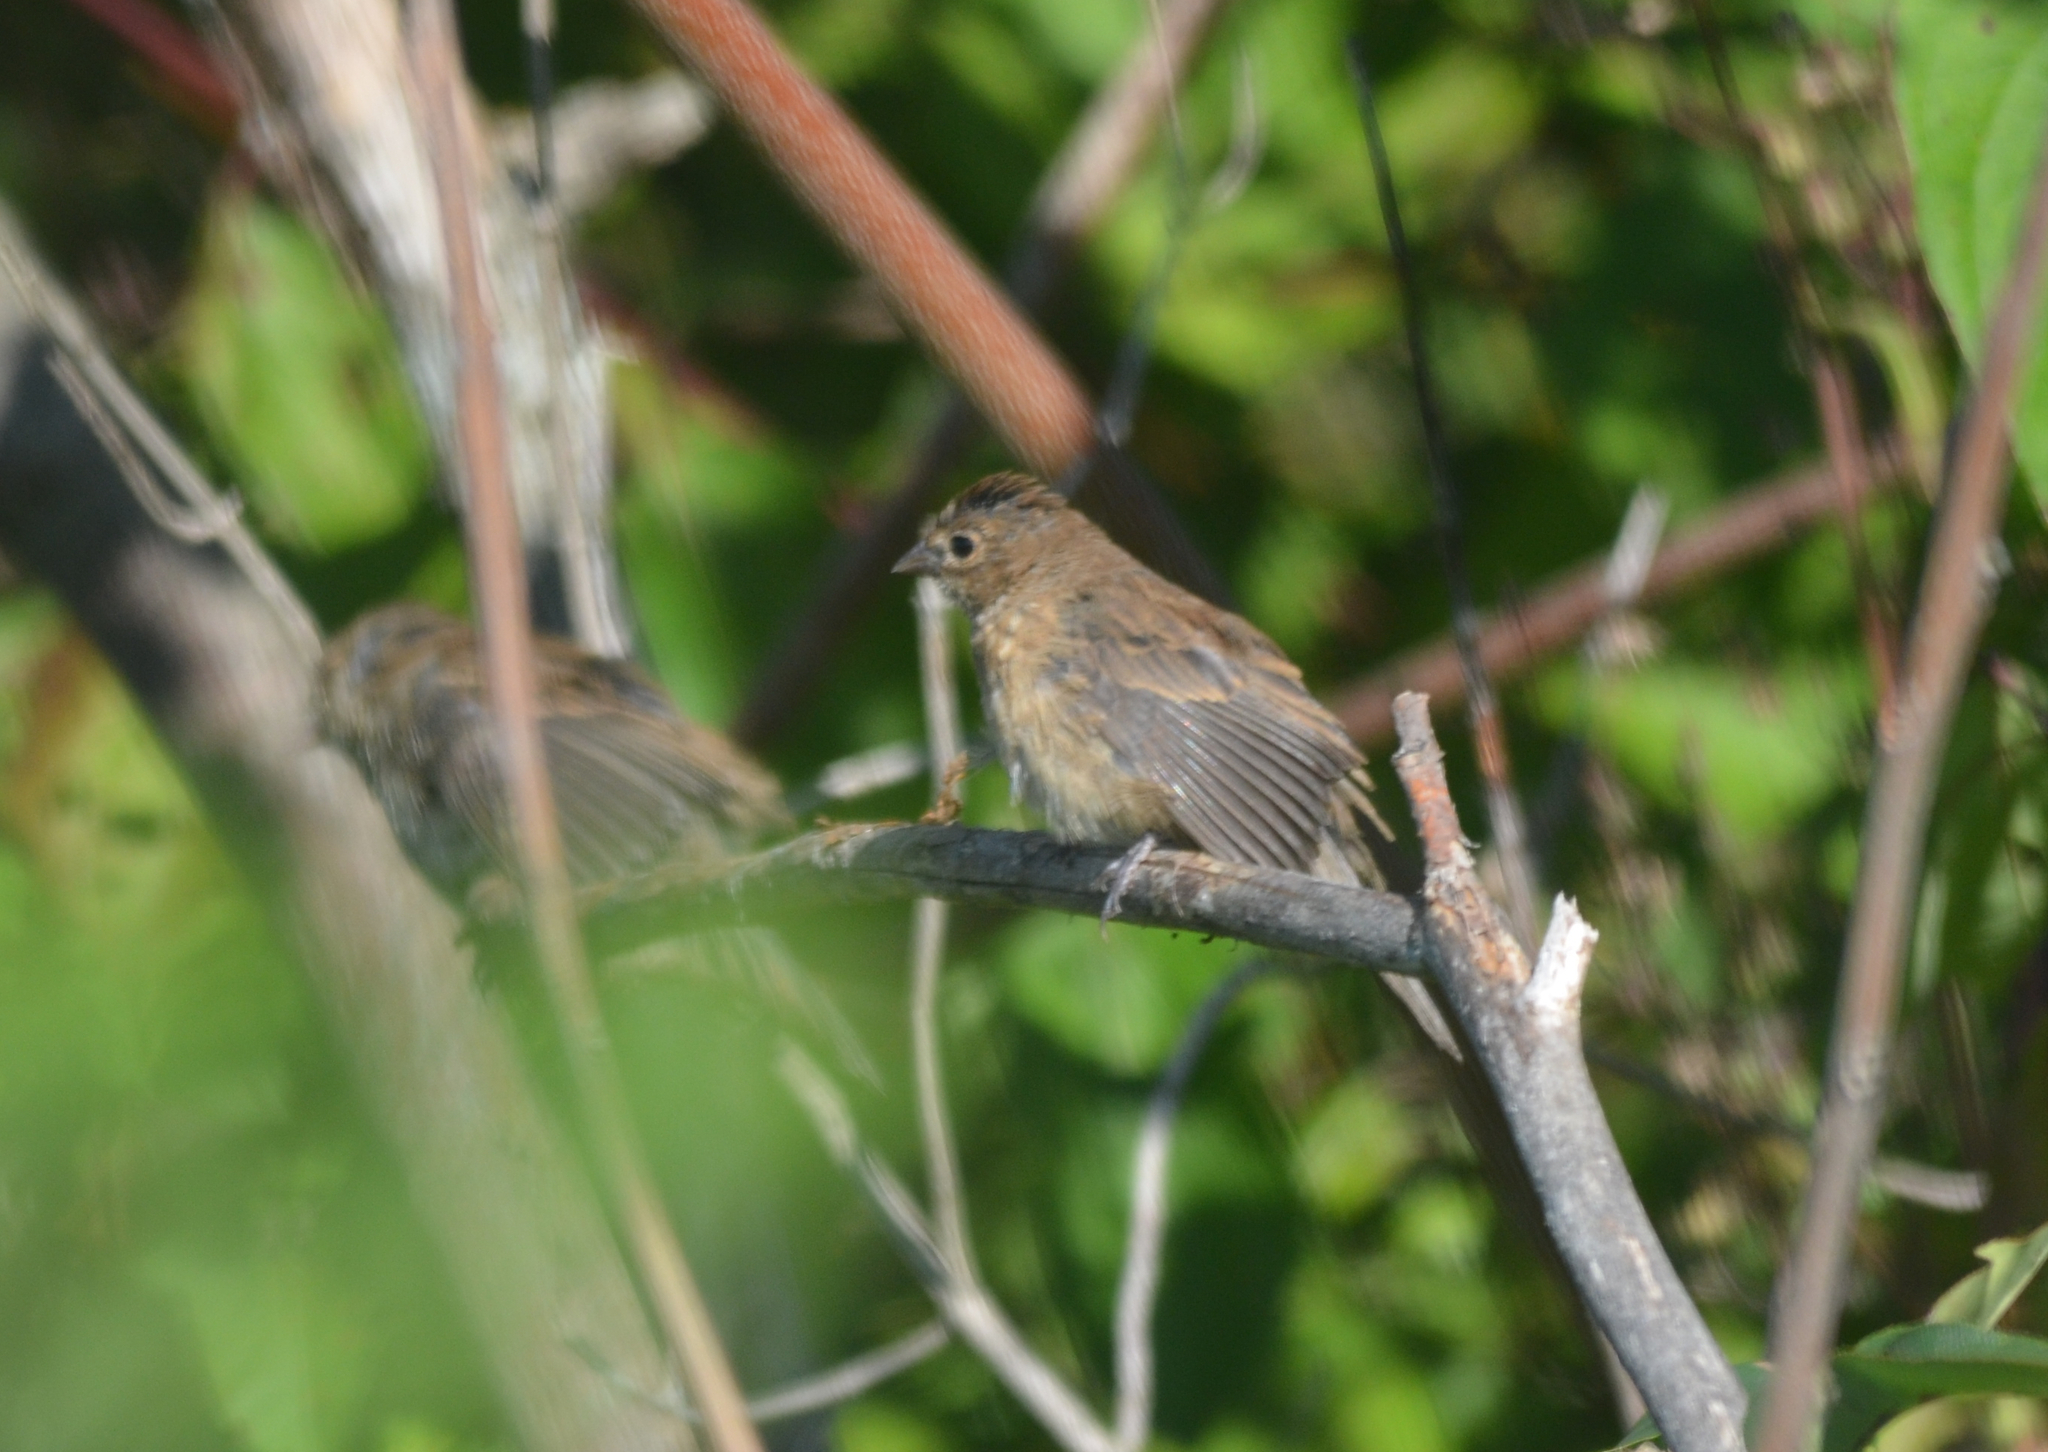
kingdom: Animalia
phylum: Chordata
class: Aves
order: Passeriformes
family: Cardinalidae
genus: Passerina
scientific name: Passerina cyanea
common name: Indigo bunting
